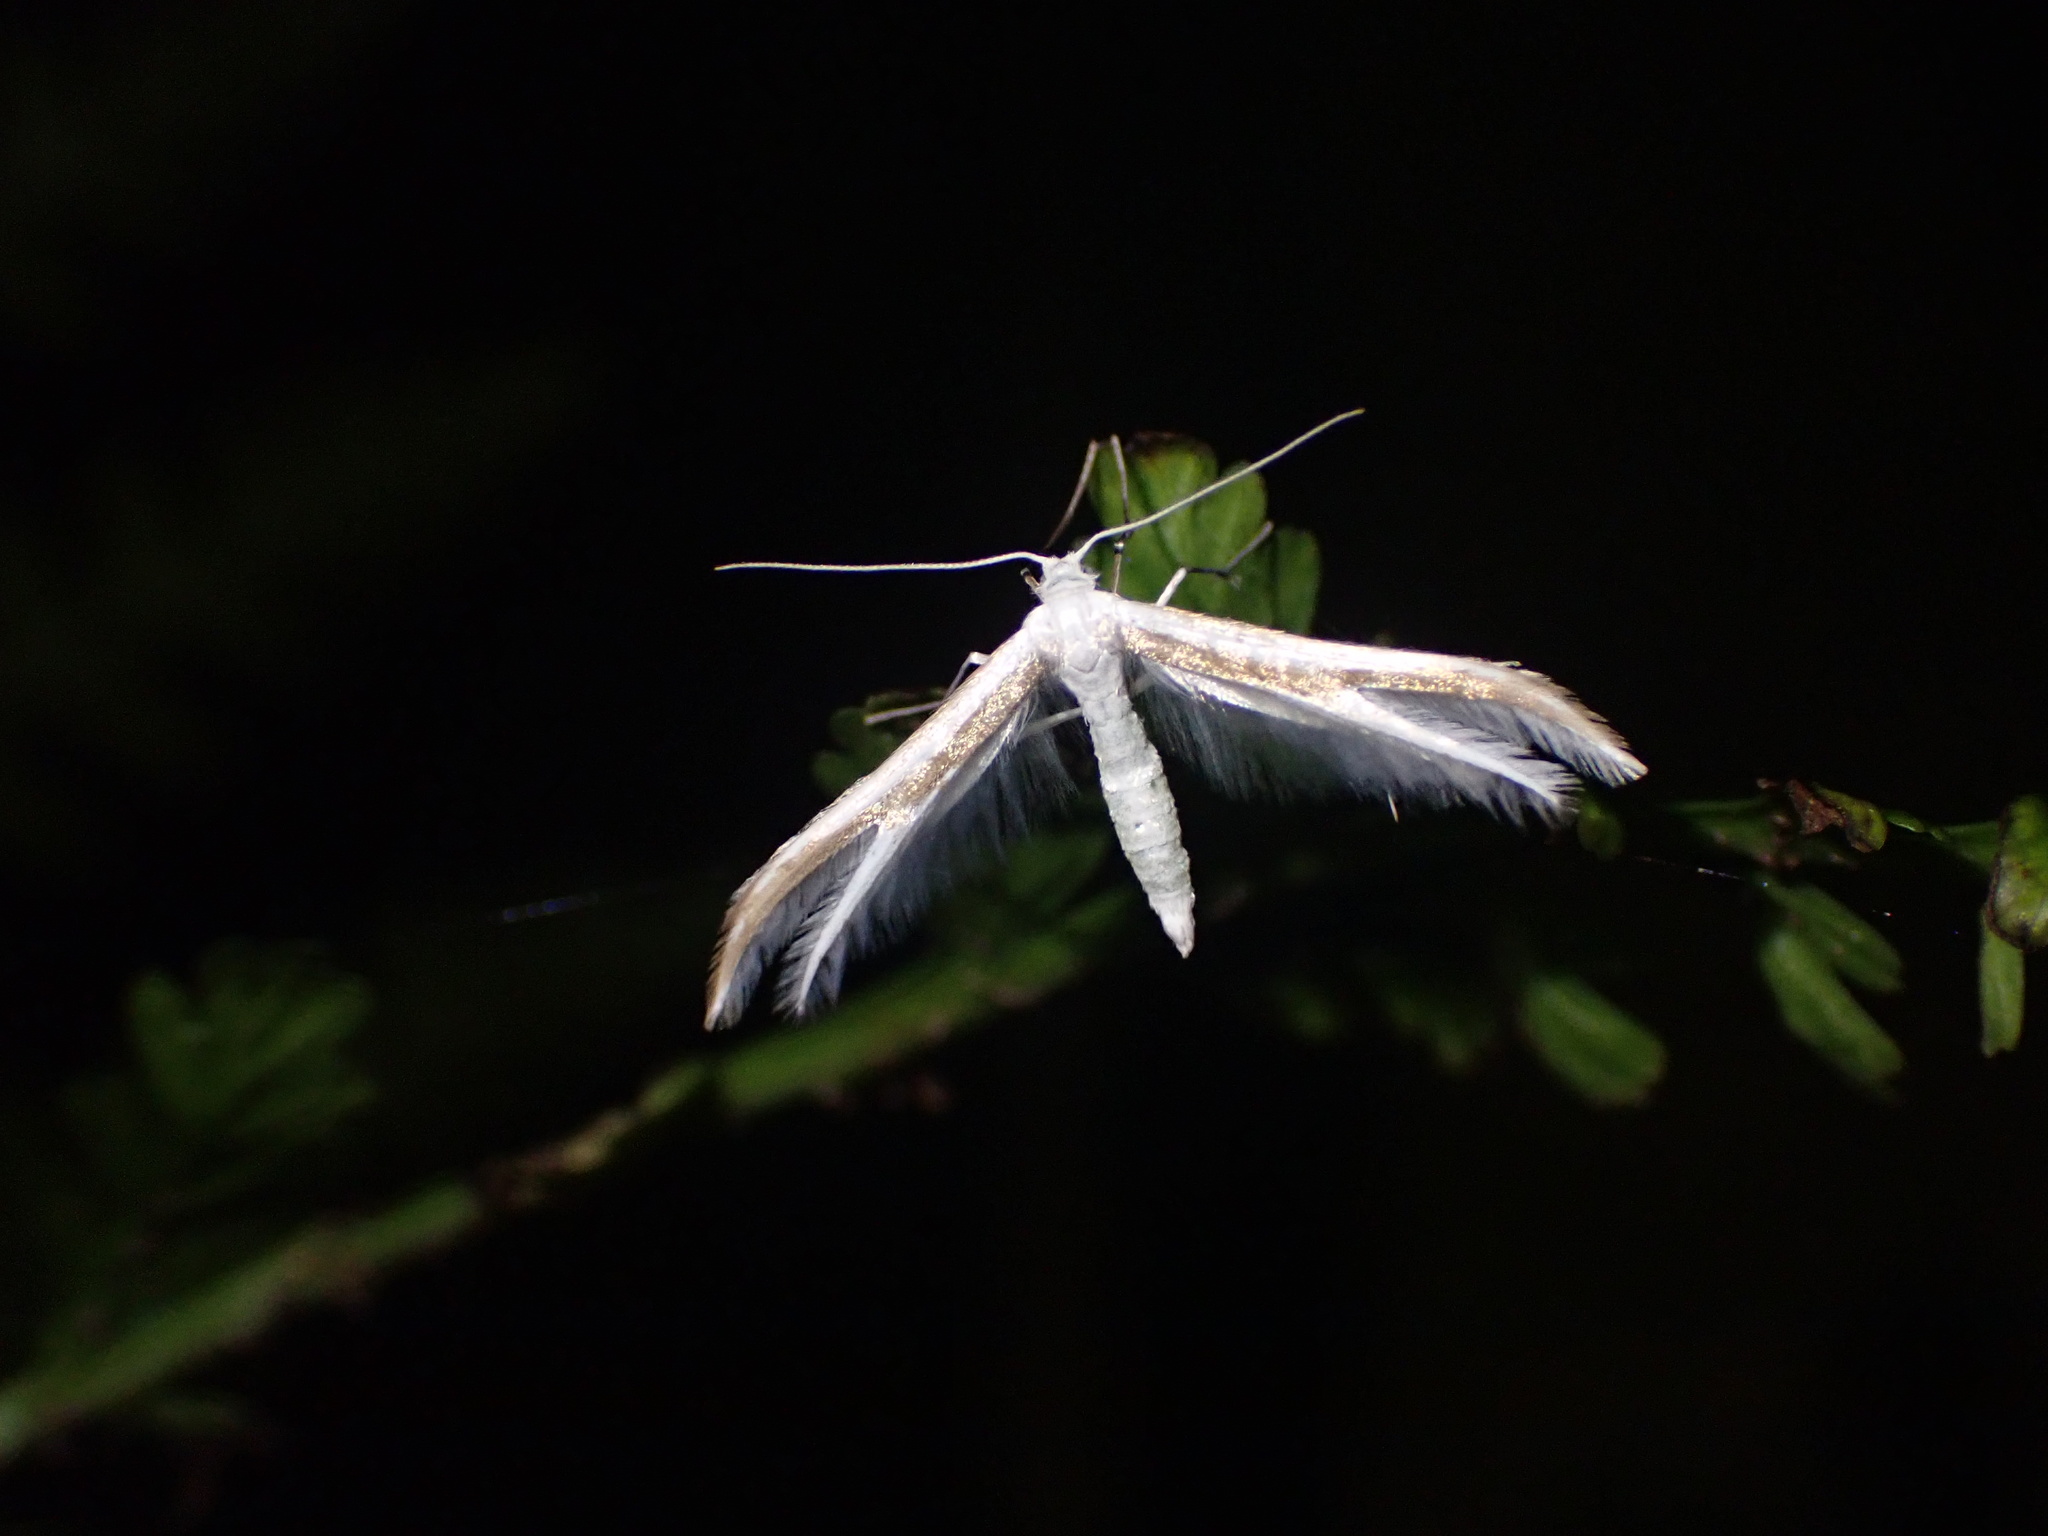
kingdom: Animalia
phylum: Arthropoda
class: Insecta
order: Lepidoptera
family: Pterophoridae
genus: Pterophorus
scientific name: Pterophorus monospilalis
